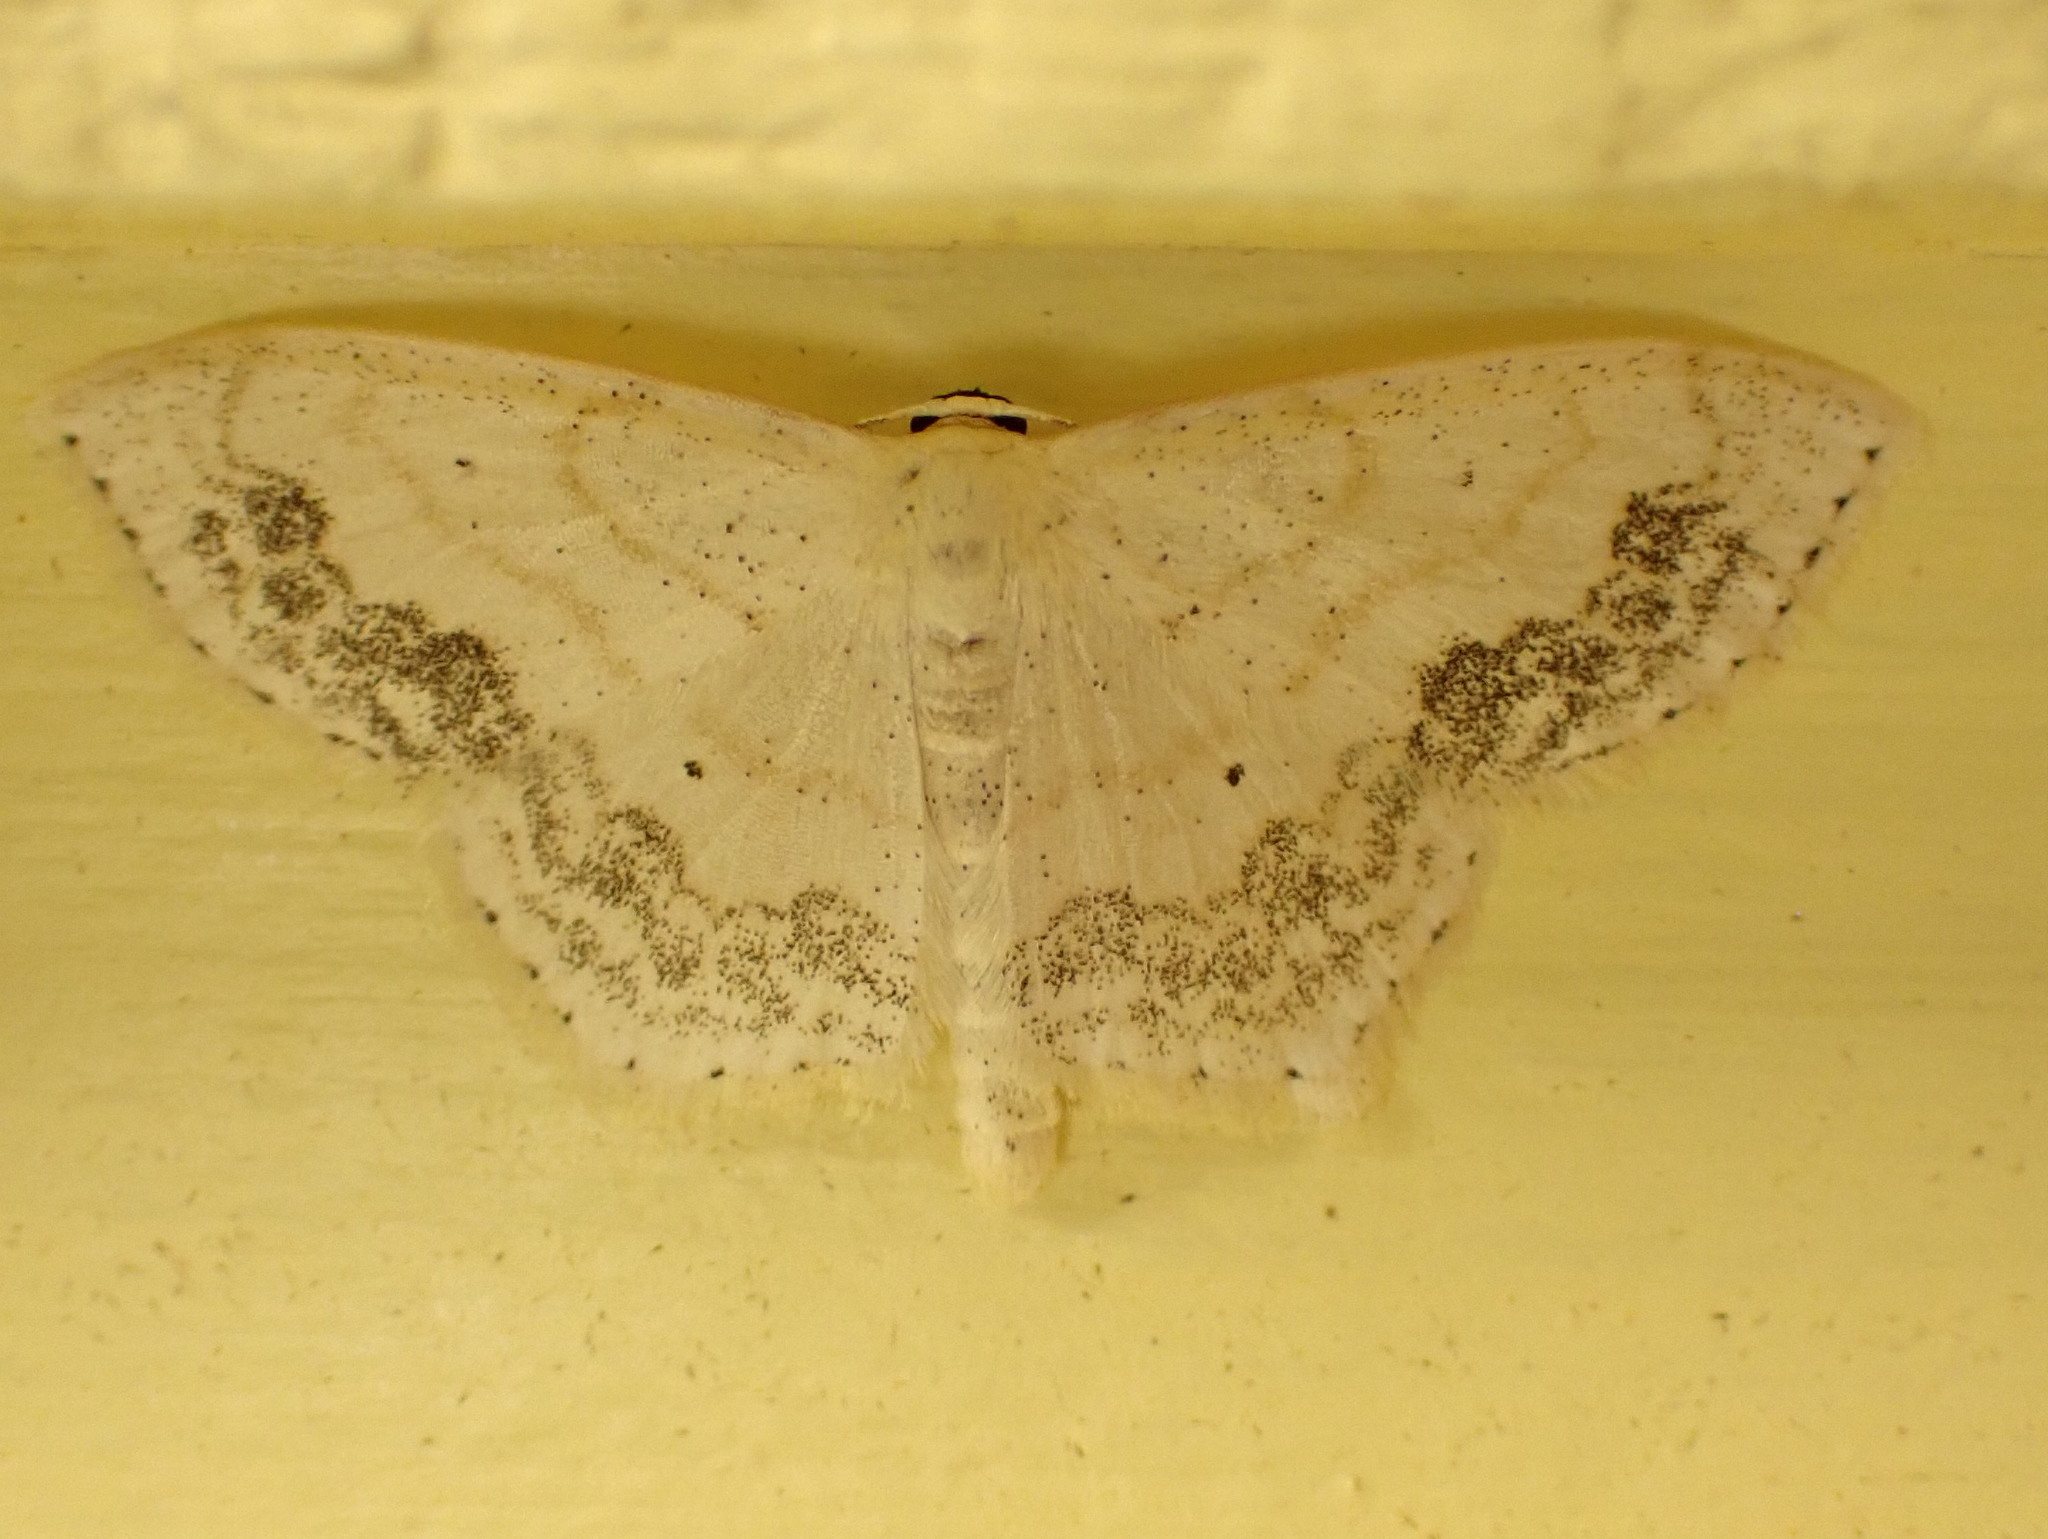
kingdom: Animalia
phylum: Arthropoda
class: Insecta
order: Lepidoptera
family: Geometridae
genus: Scopula
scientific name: Scopula limboundata
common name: Large lace border
